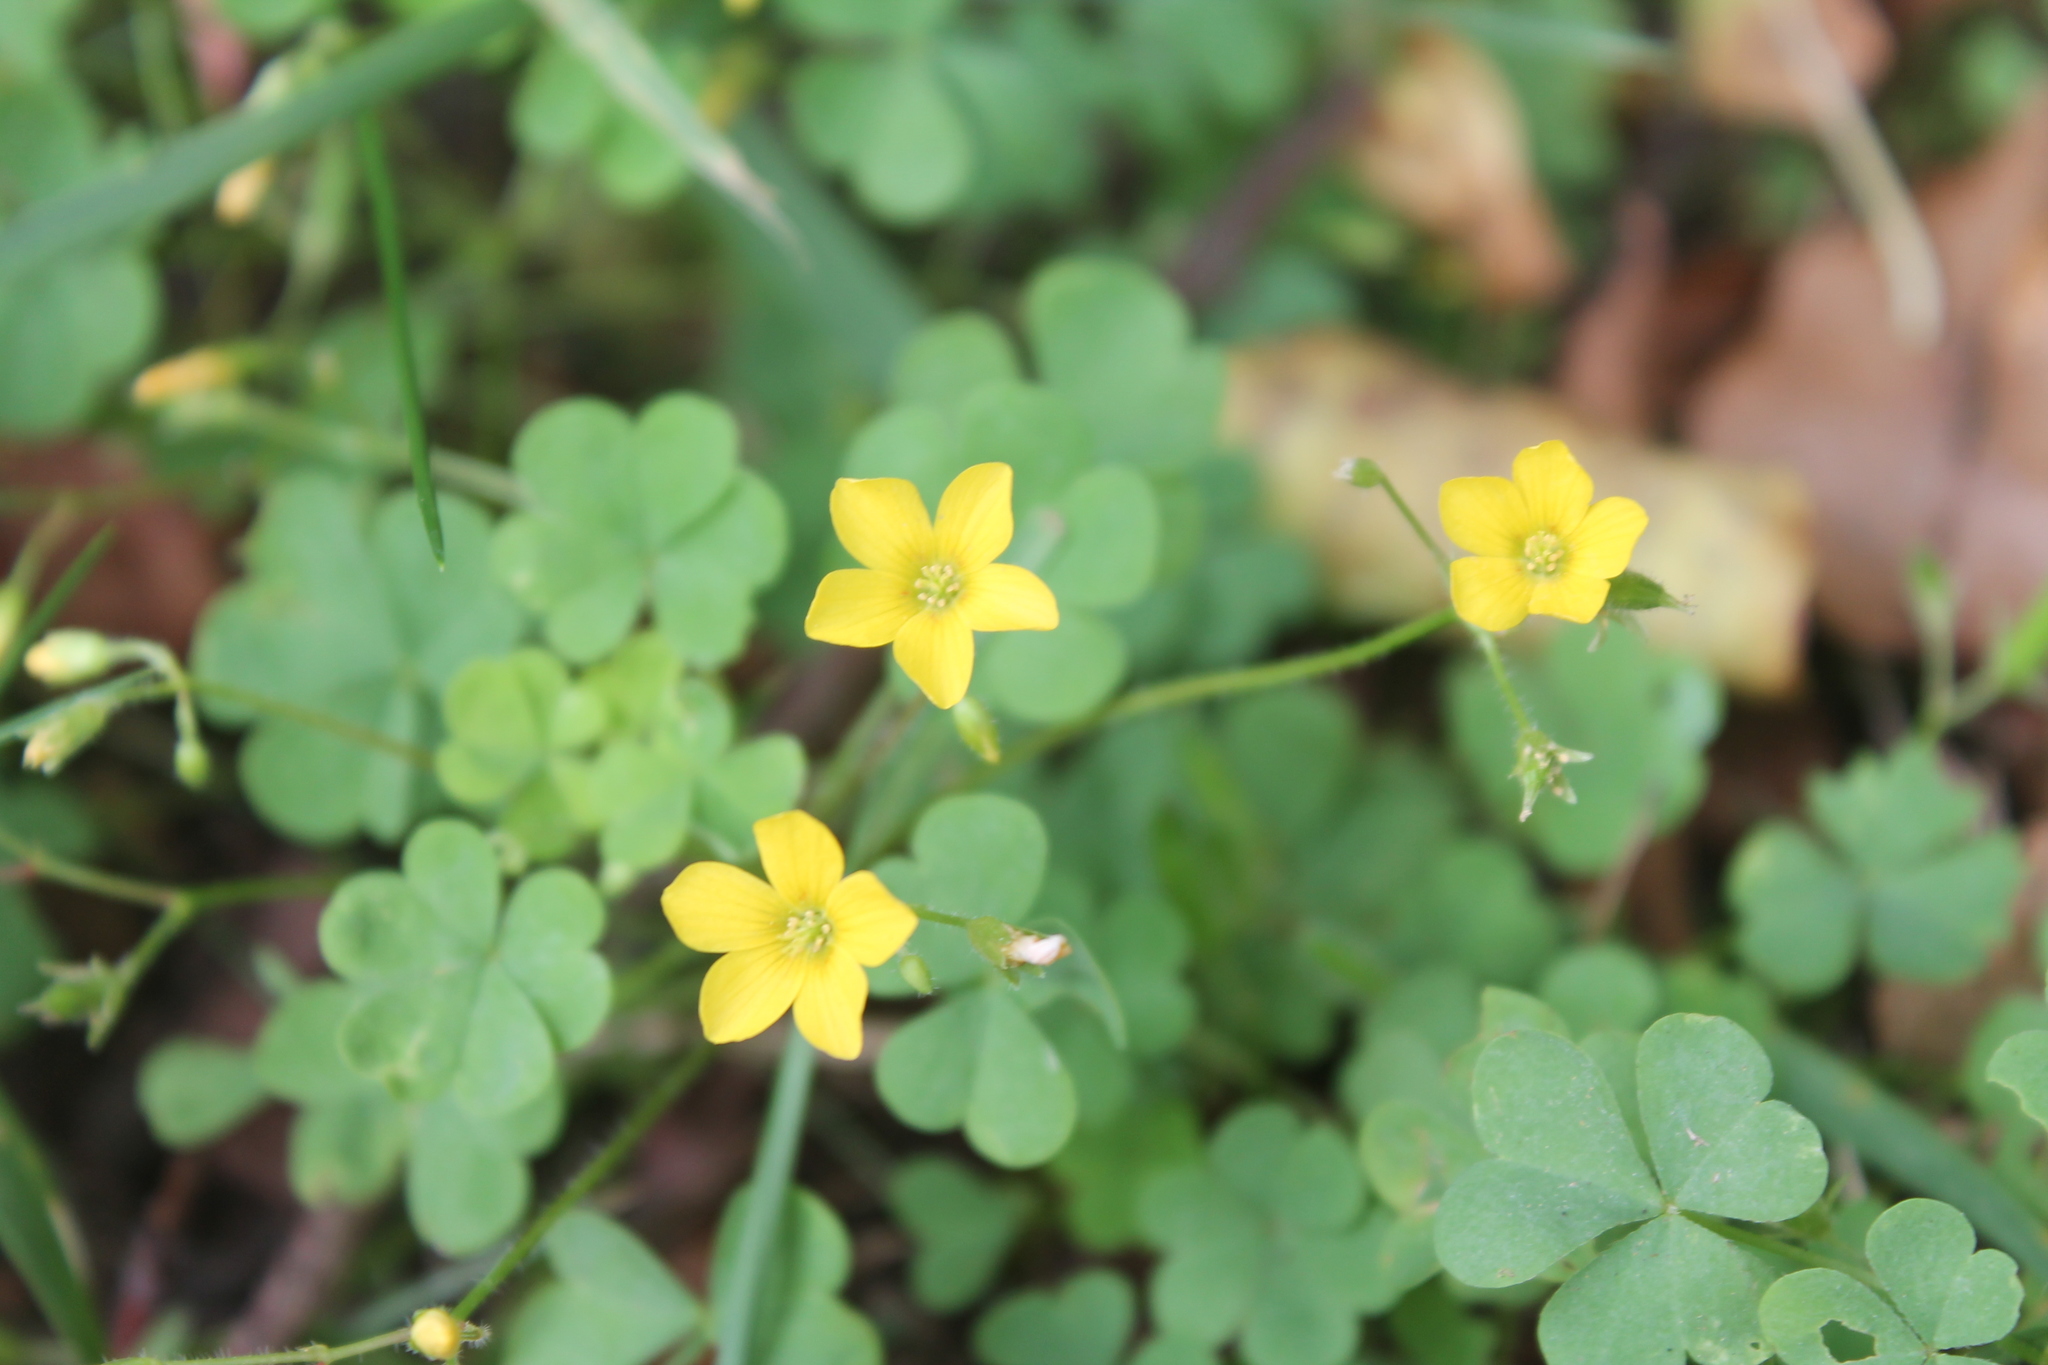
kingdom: Plantae
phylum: Tracheophyta
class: Magnoliopsida
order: Oxalidales
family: Oxalidaceae
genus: Oxalis
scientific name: Oxalis stricta
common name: Upright yellow-sorrel
